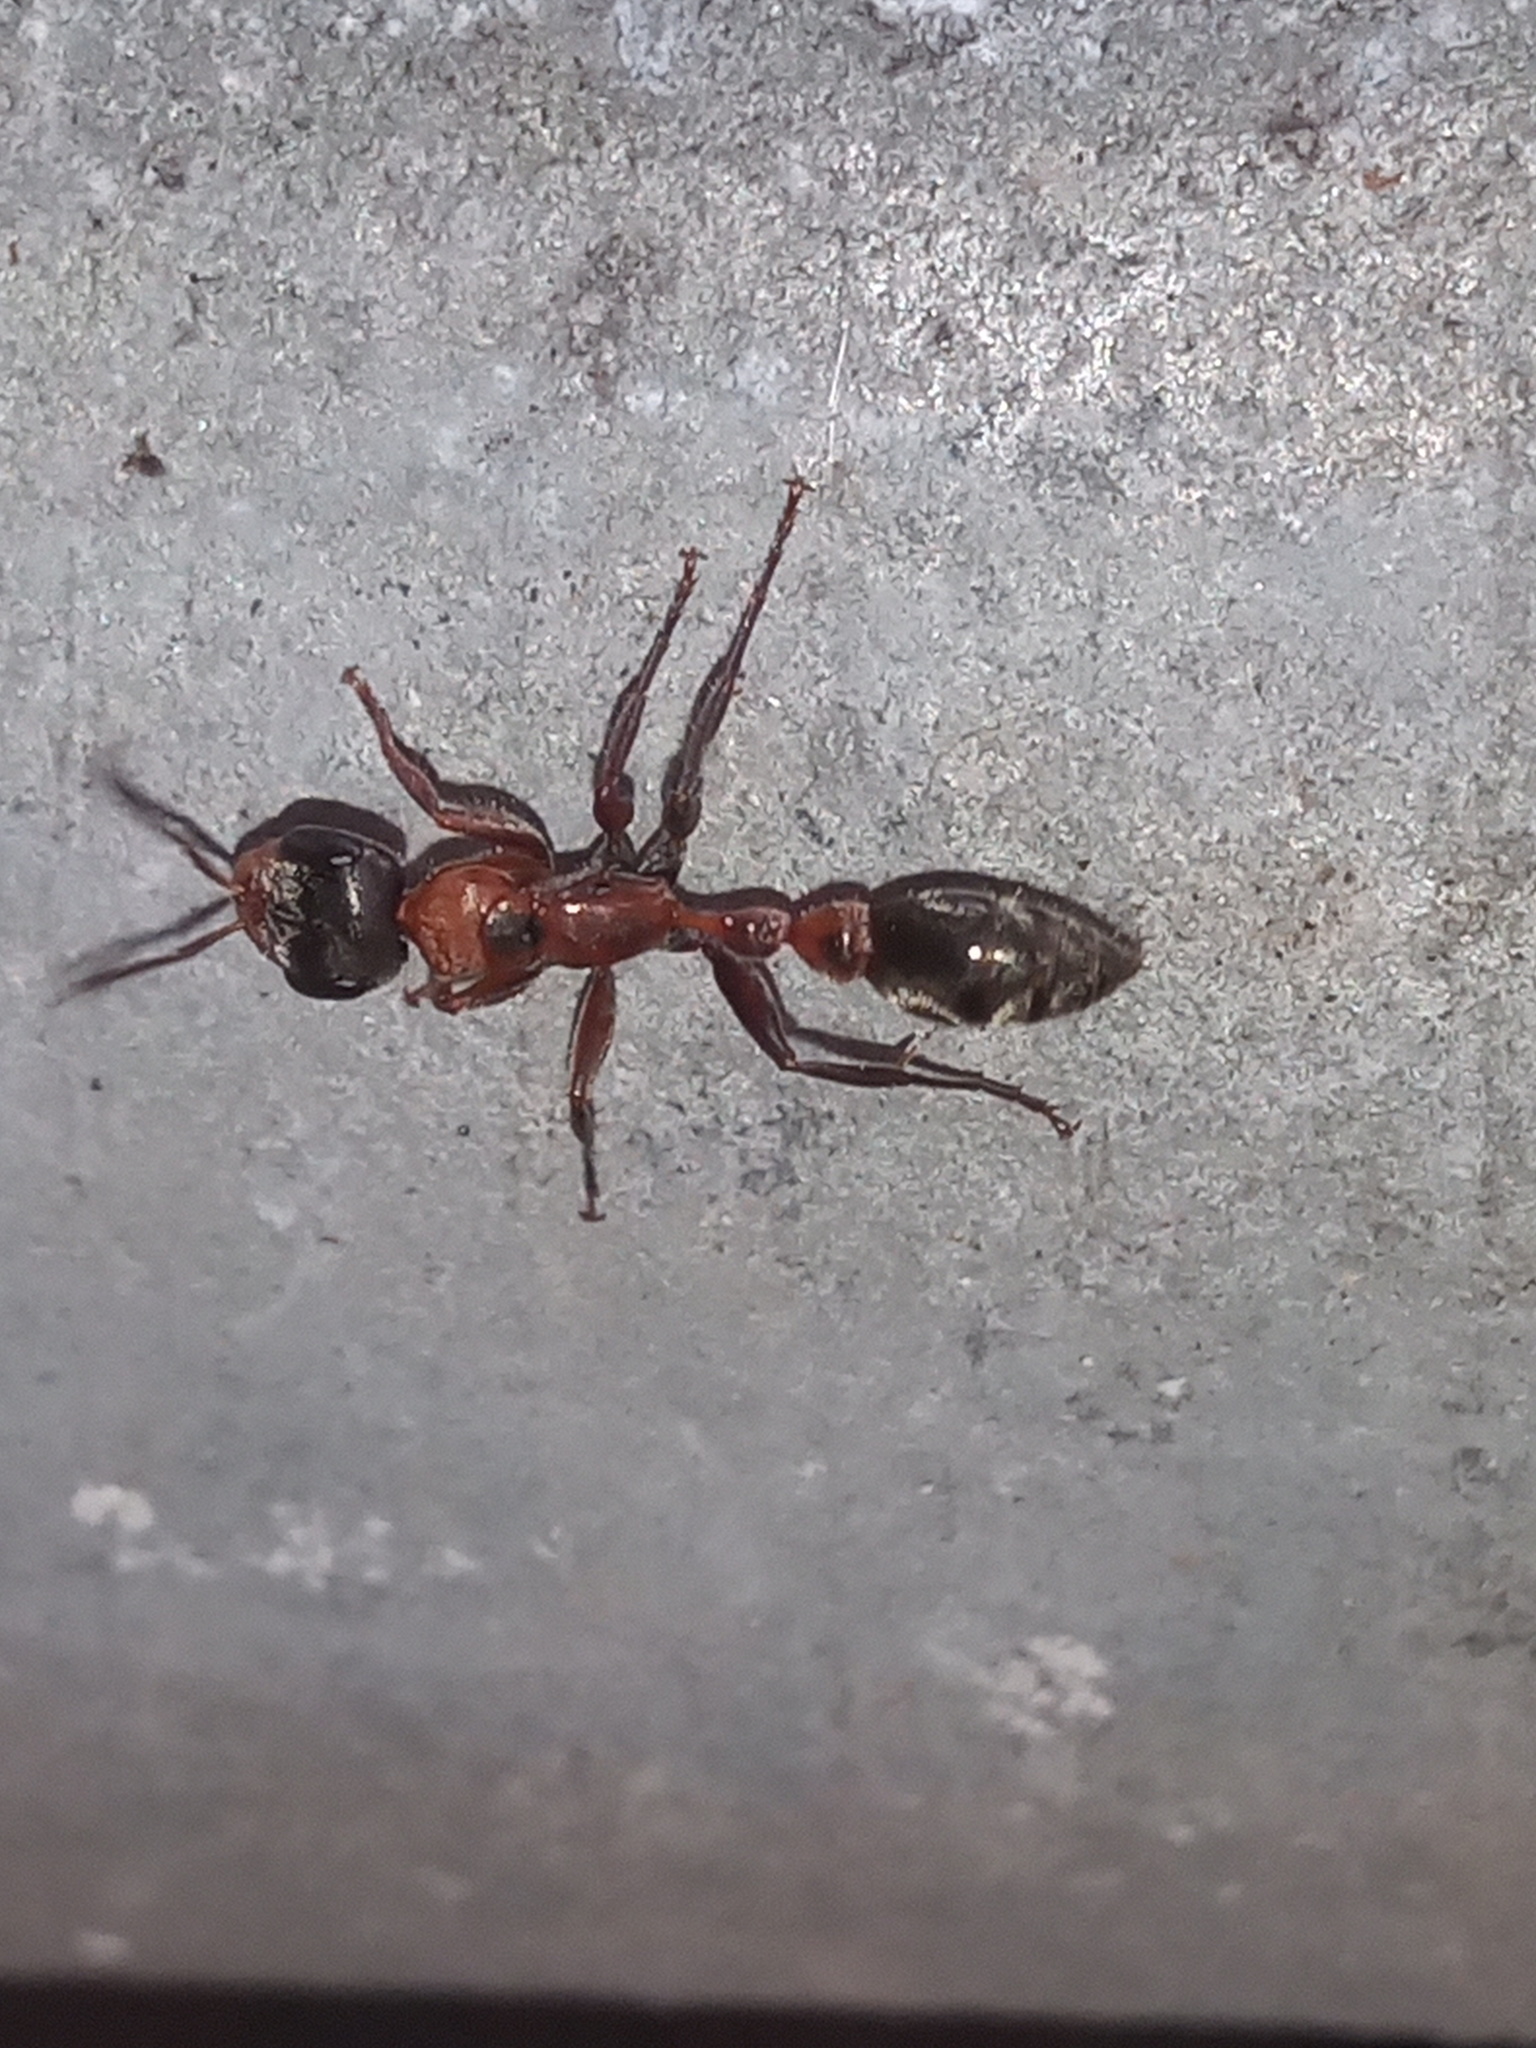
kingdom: Animalia
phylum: Arthropoda
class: Insecta
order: Hymenoptera
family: Formicidae
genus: Pseudomyrmex
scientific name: Pseudomyrmex gracilis
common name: Graceful twig ant
